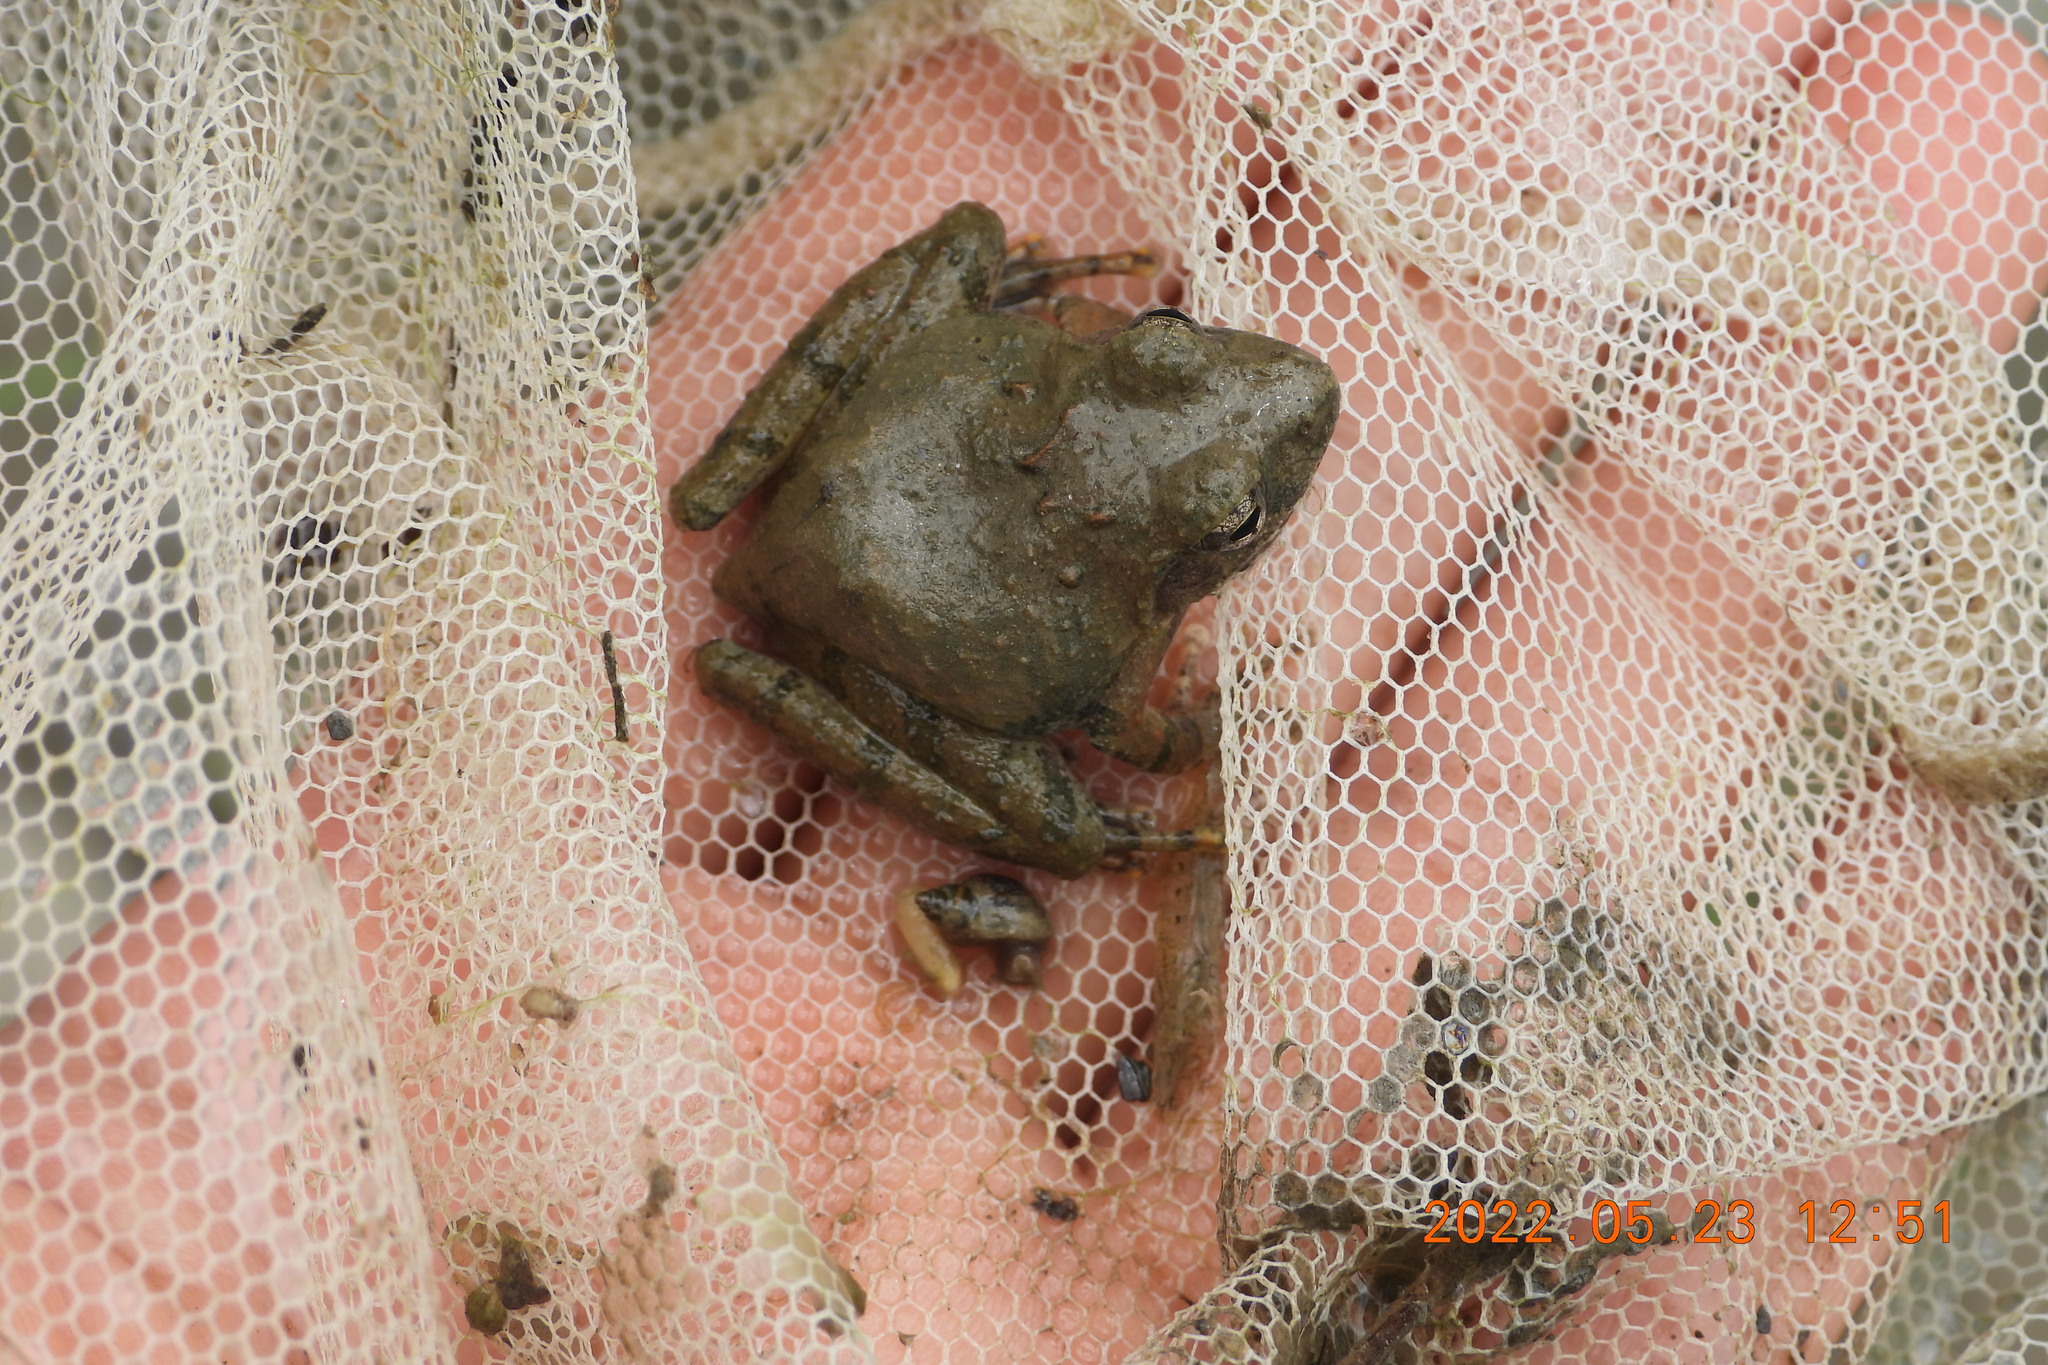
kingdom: Animalia
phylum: Chordata
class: Amphibia
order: Anura
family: Rhacophoridae
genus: Buergeria
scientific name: Buergeria otai
